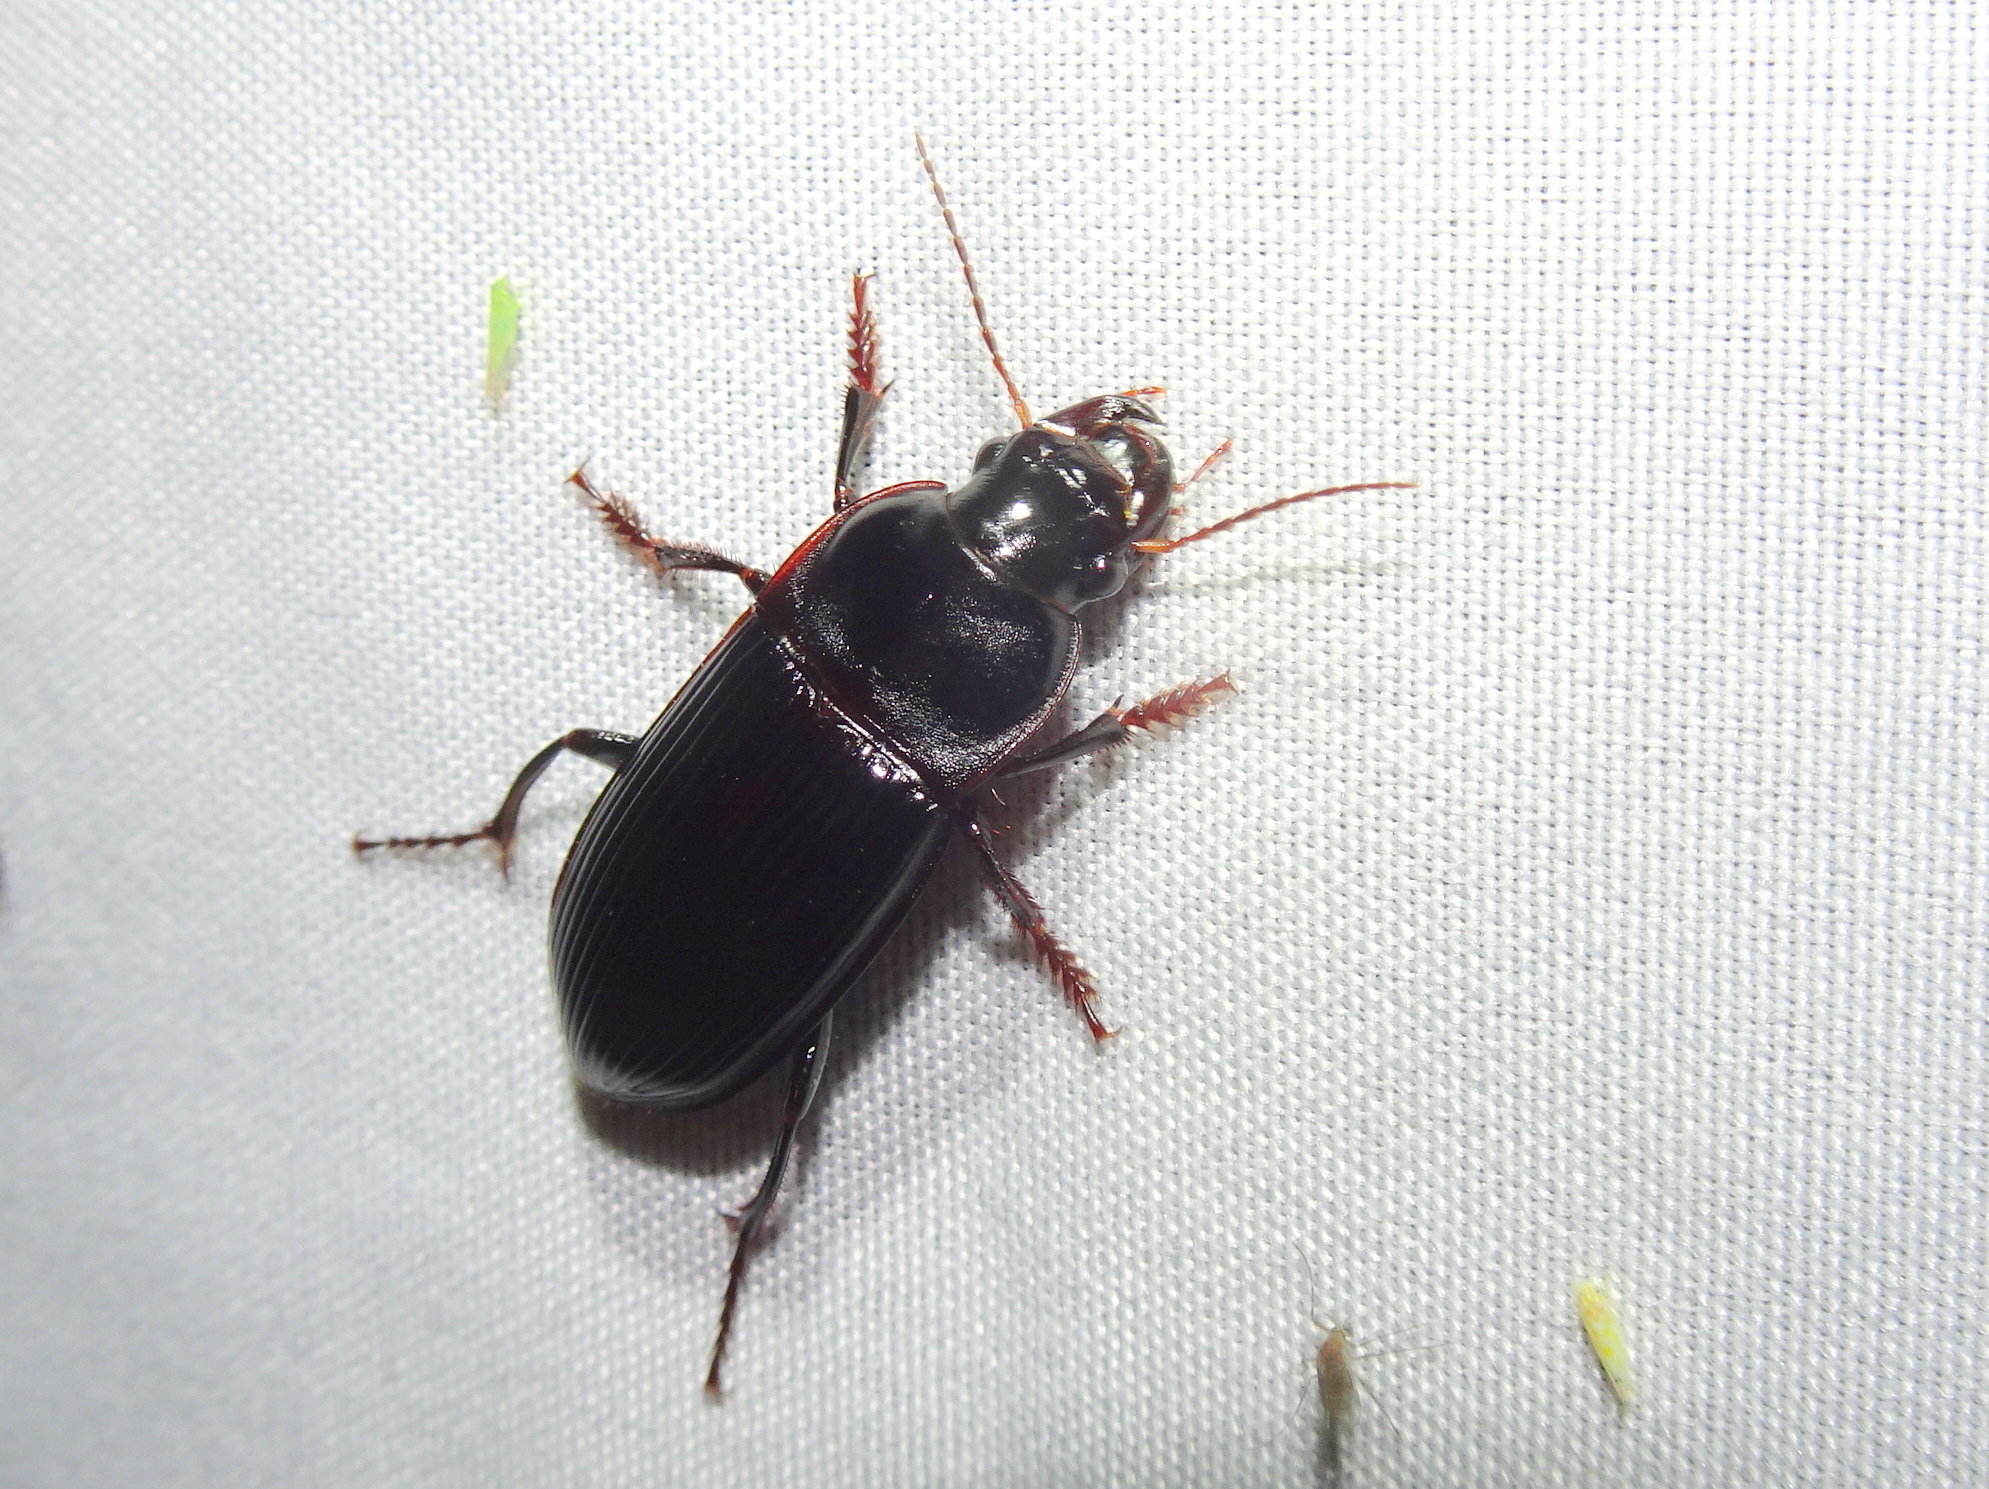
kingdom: Animalia
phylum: Arthropoda
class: Insecta
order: Coleoptera
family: Carabidae
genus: Harpalus
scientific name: Harpalus caliginosus
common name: Murky ground beetle
